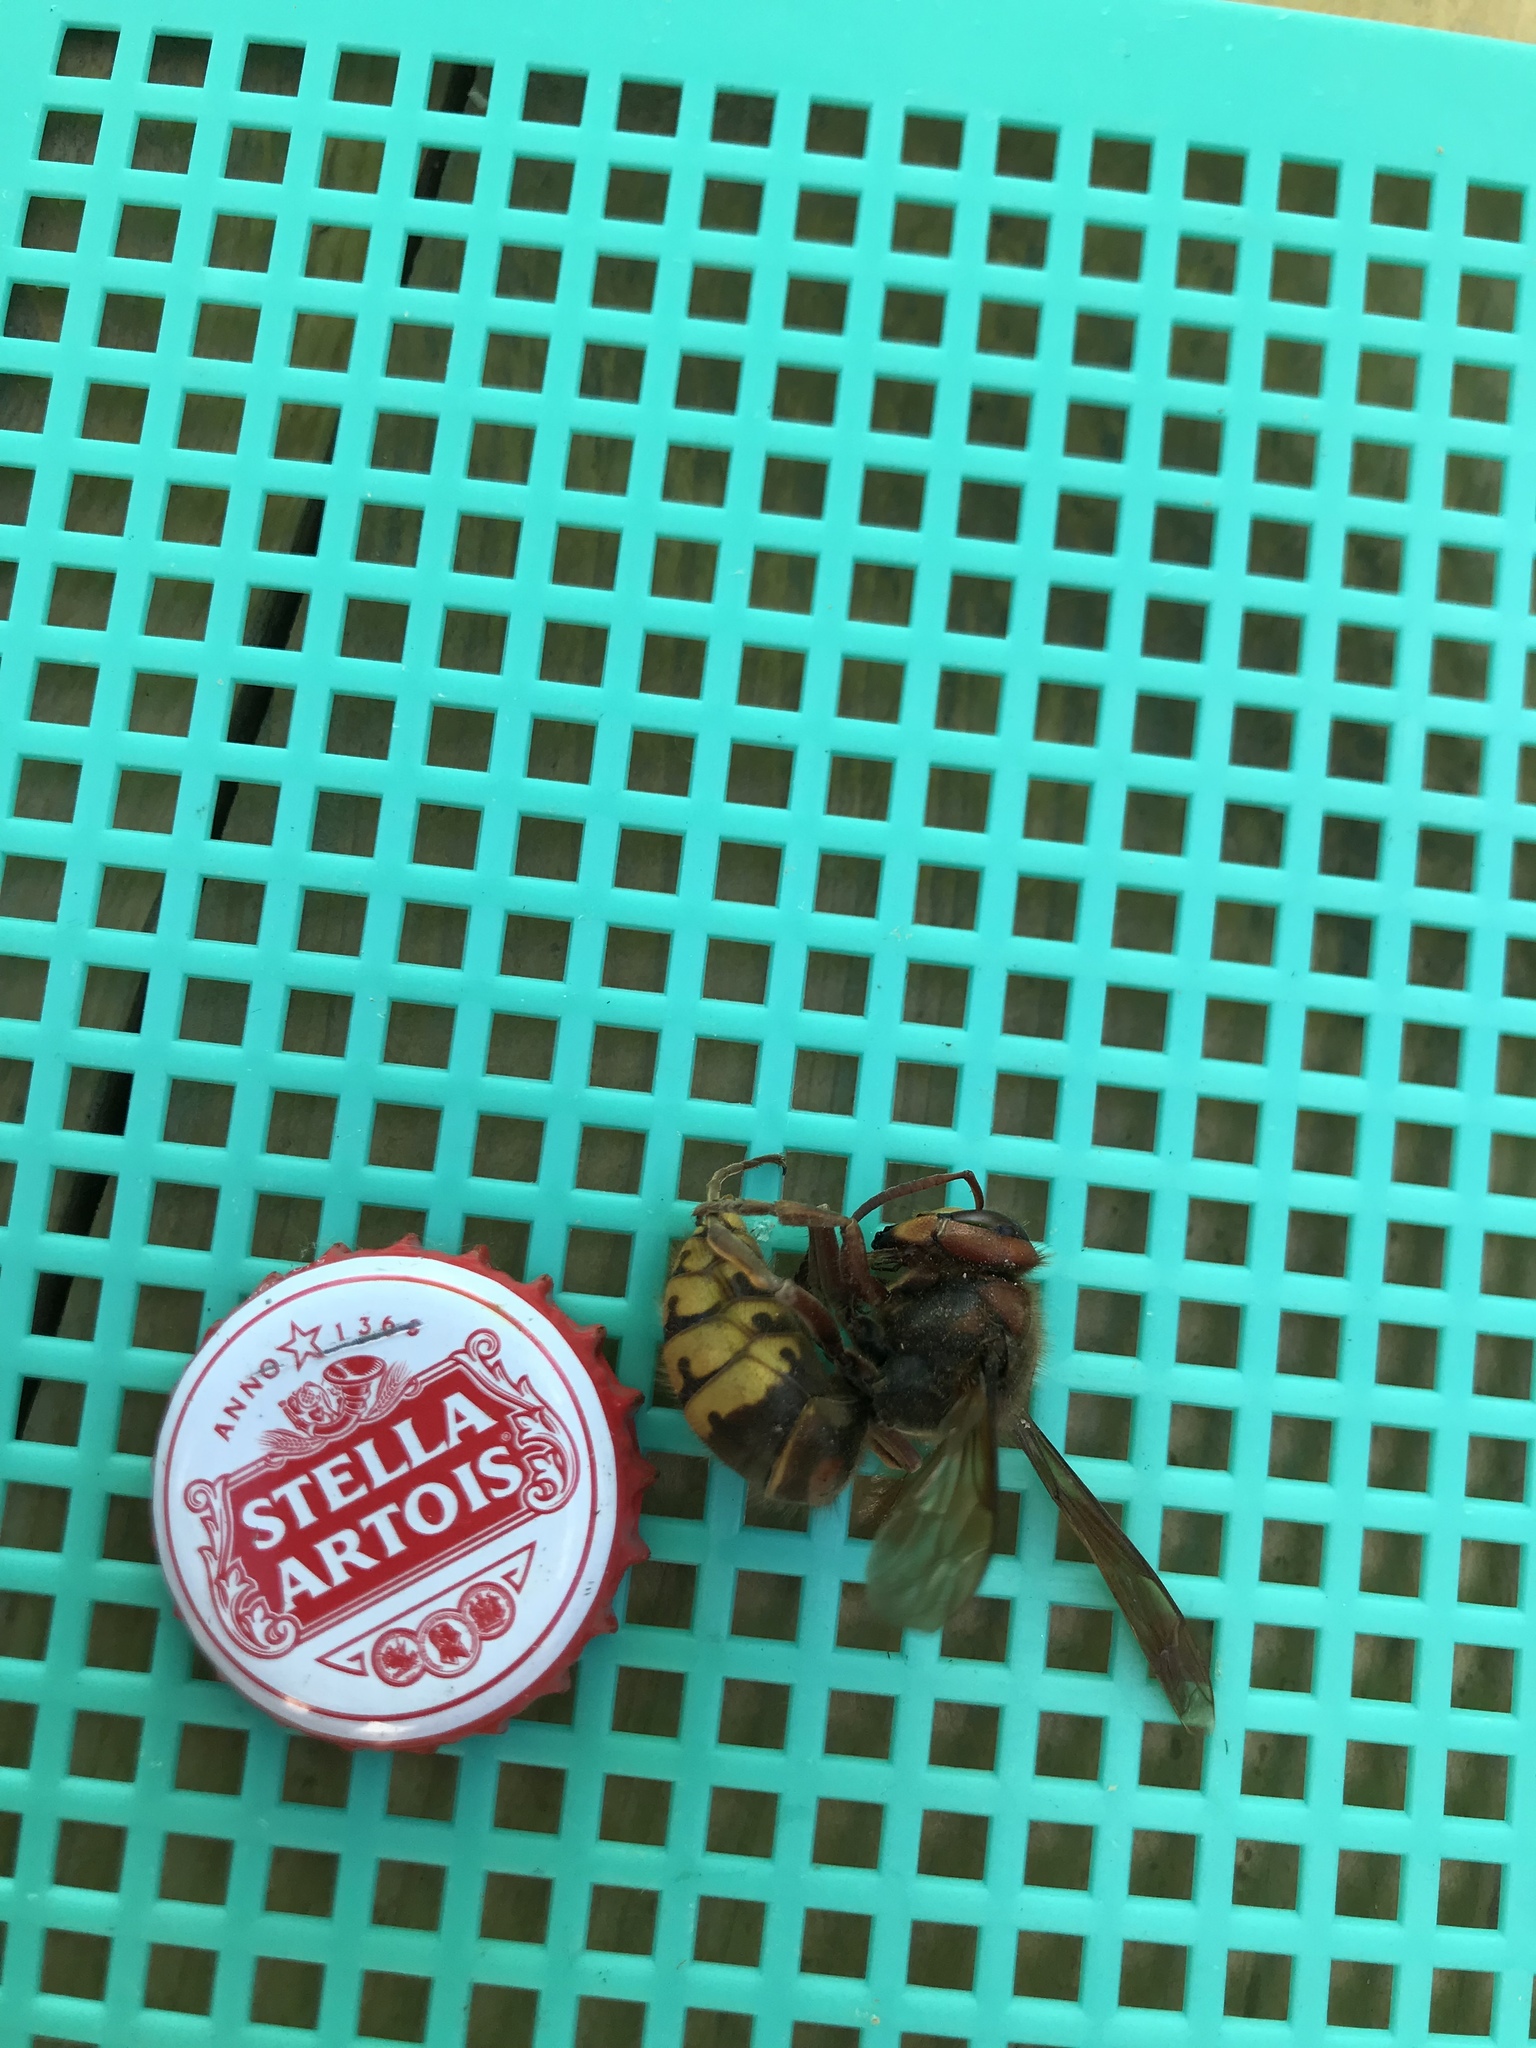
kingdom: Animalia
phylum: Arthropoda
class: Insecta
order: Hymenoptera
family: Vespidae
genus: Vespa
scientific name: Vespa crabro
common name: Hornet
